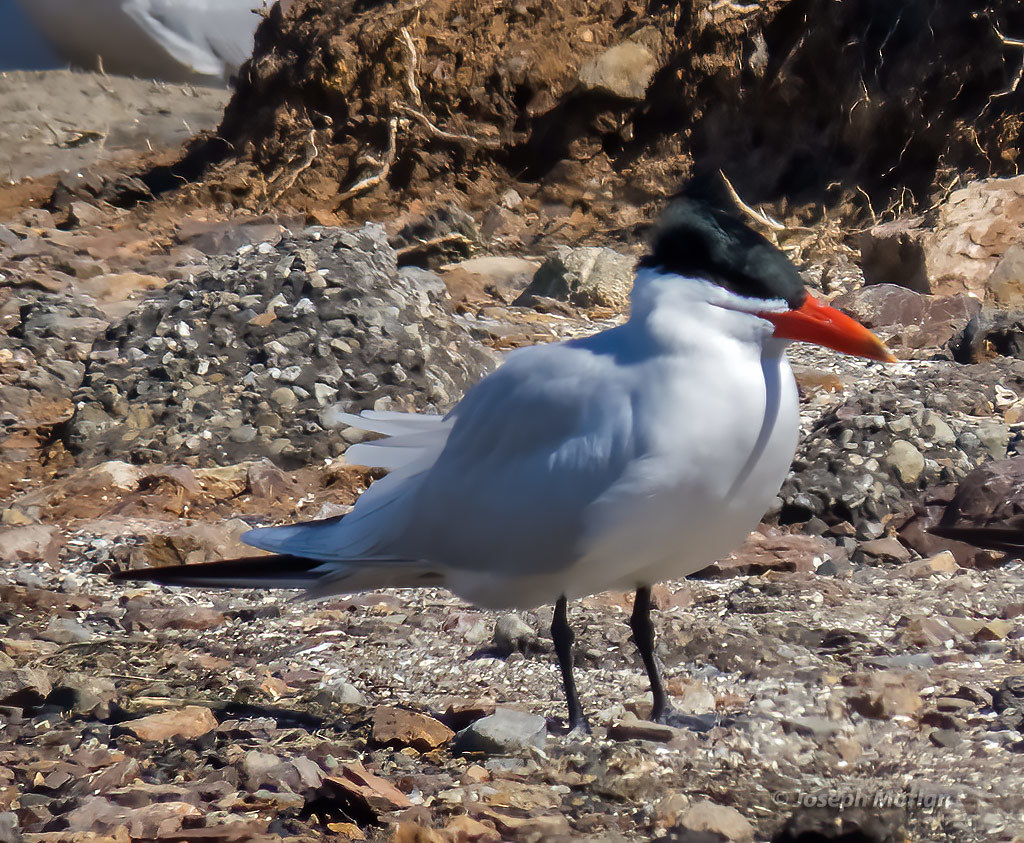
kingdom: Animalia
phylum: Chordata
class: Aves
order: Charadriiformes
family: Laridae
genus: Hydroprogne
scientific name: Hydroprogne caspia
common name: Caspian tern
